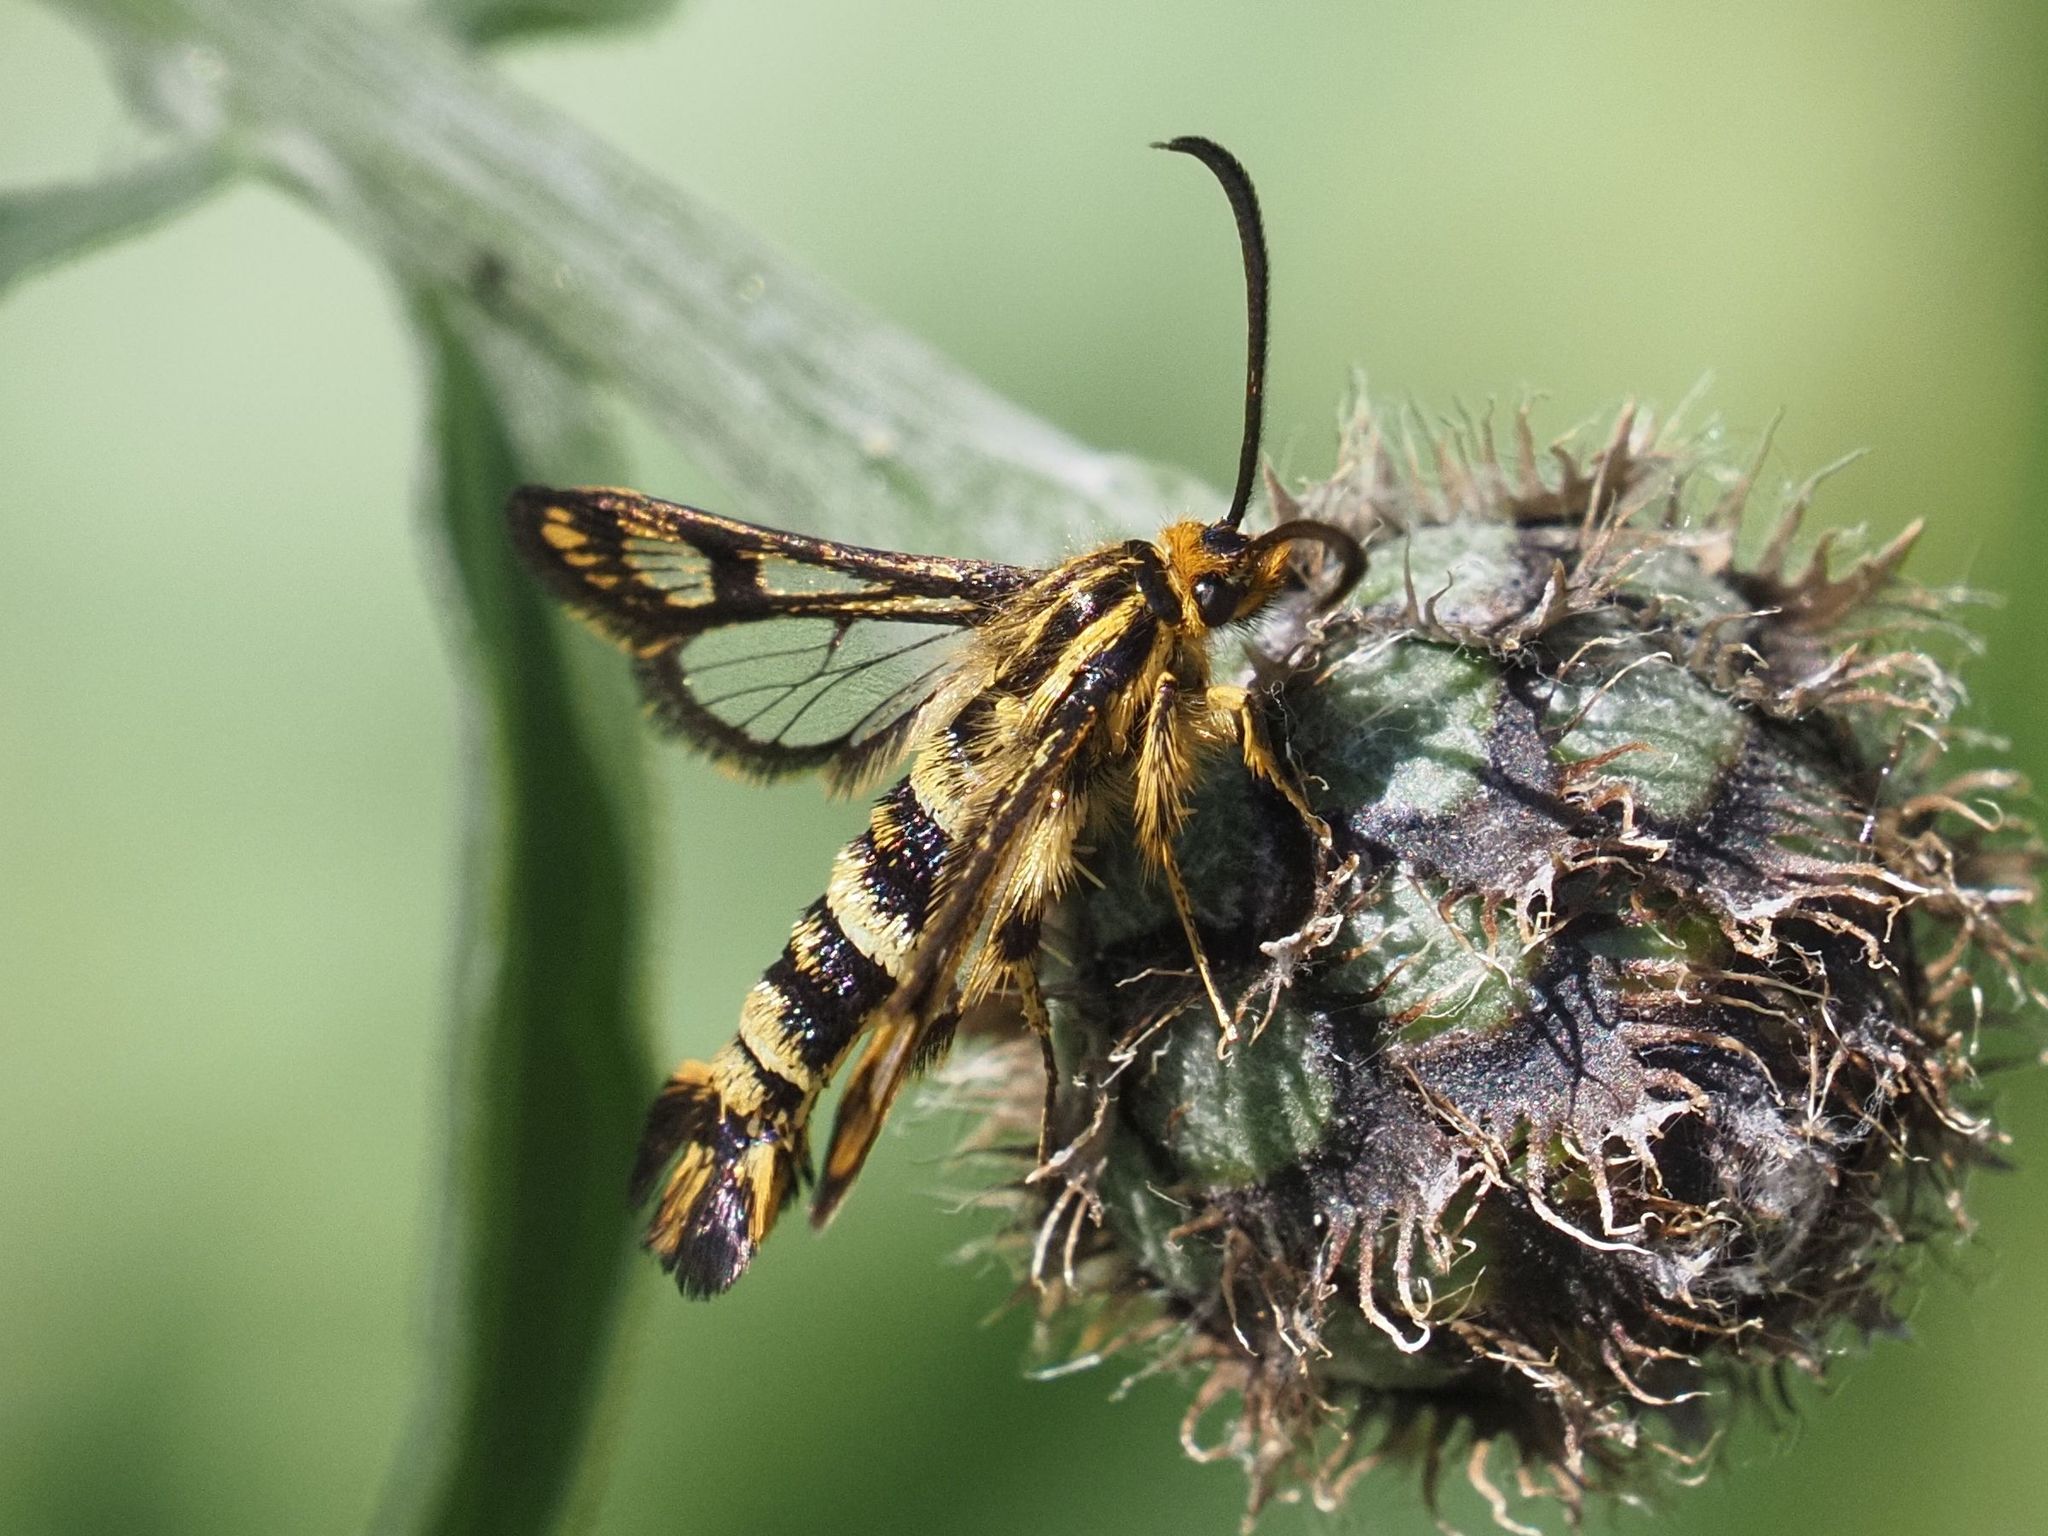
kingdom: Animalia
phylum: Arthropoda
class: Insecta
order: Lepidoptera
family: Sesiidae
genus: Chamaesphecia
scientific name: Chamaesphecia empiformis
